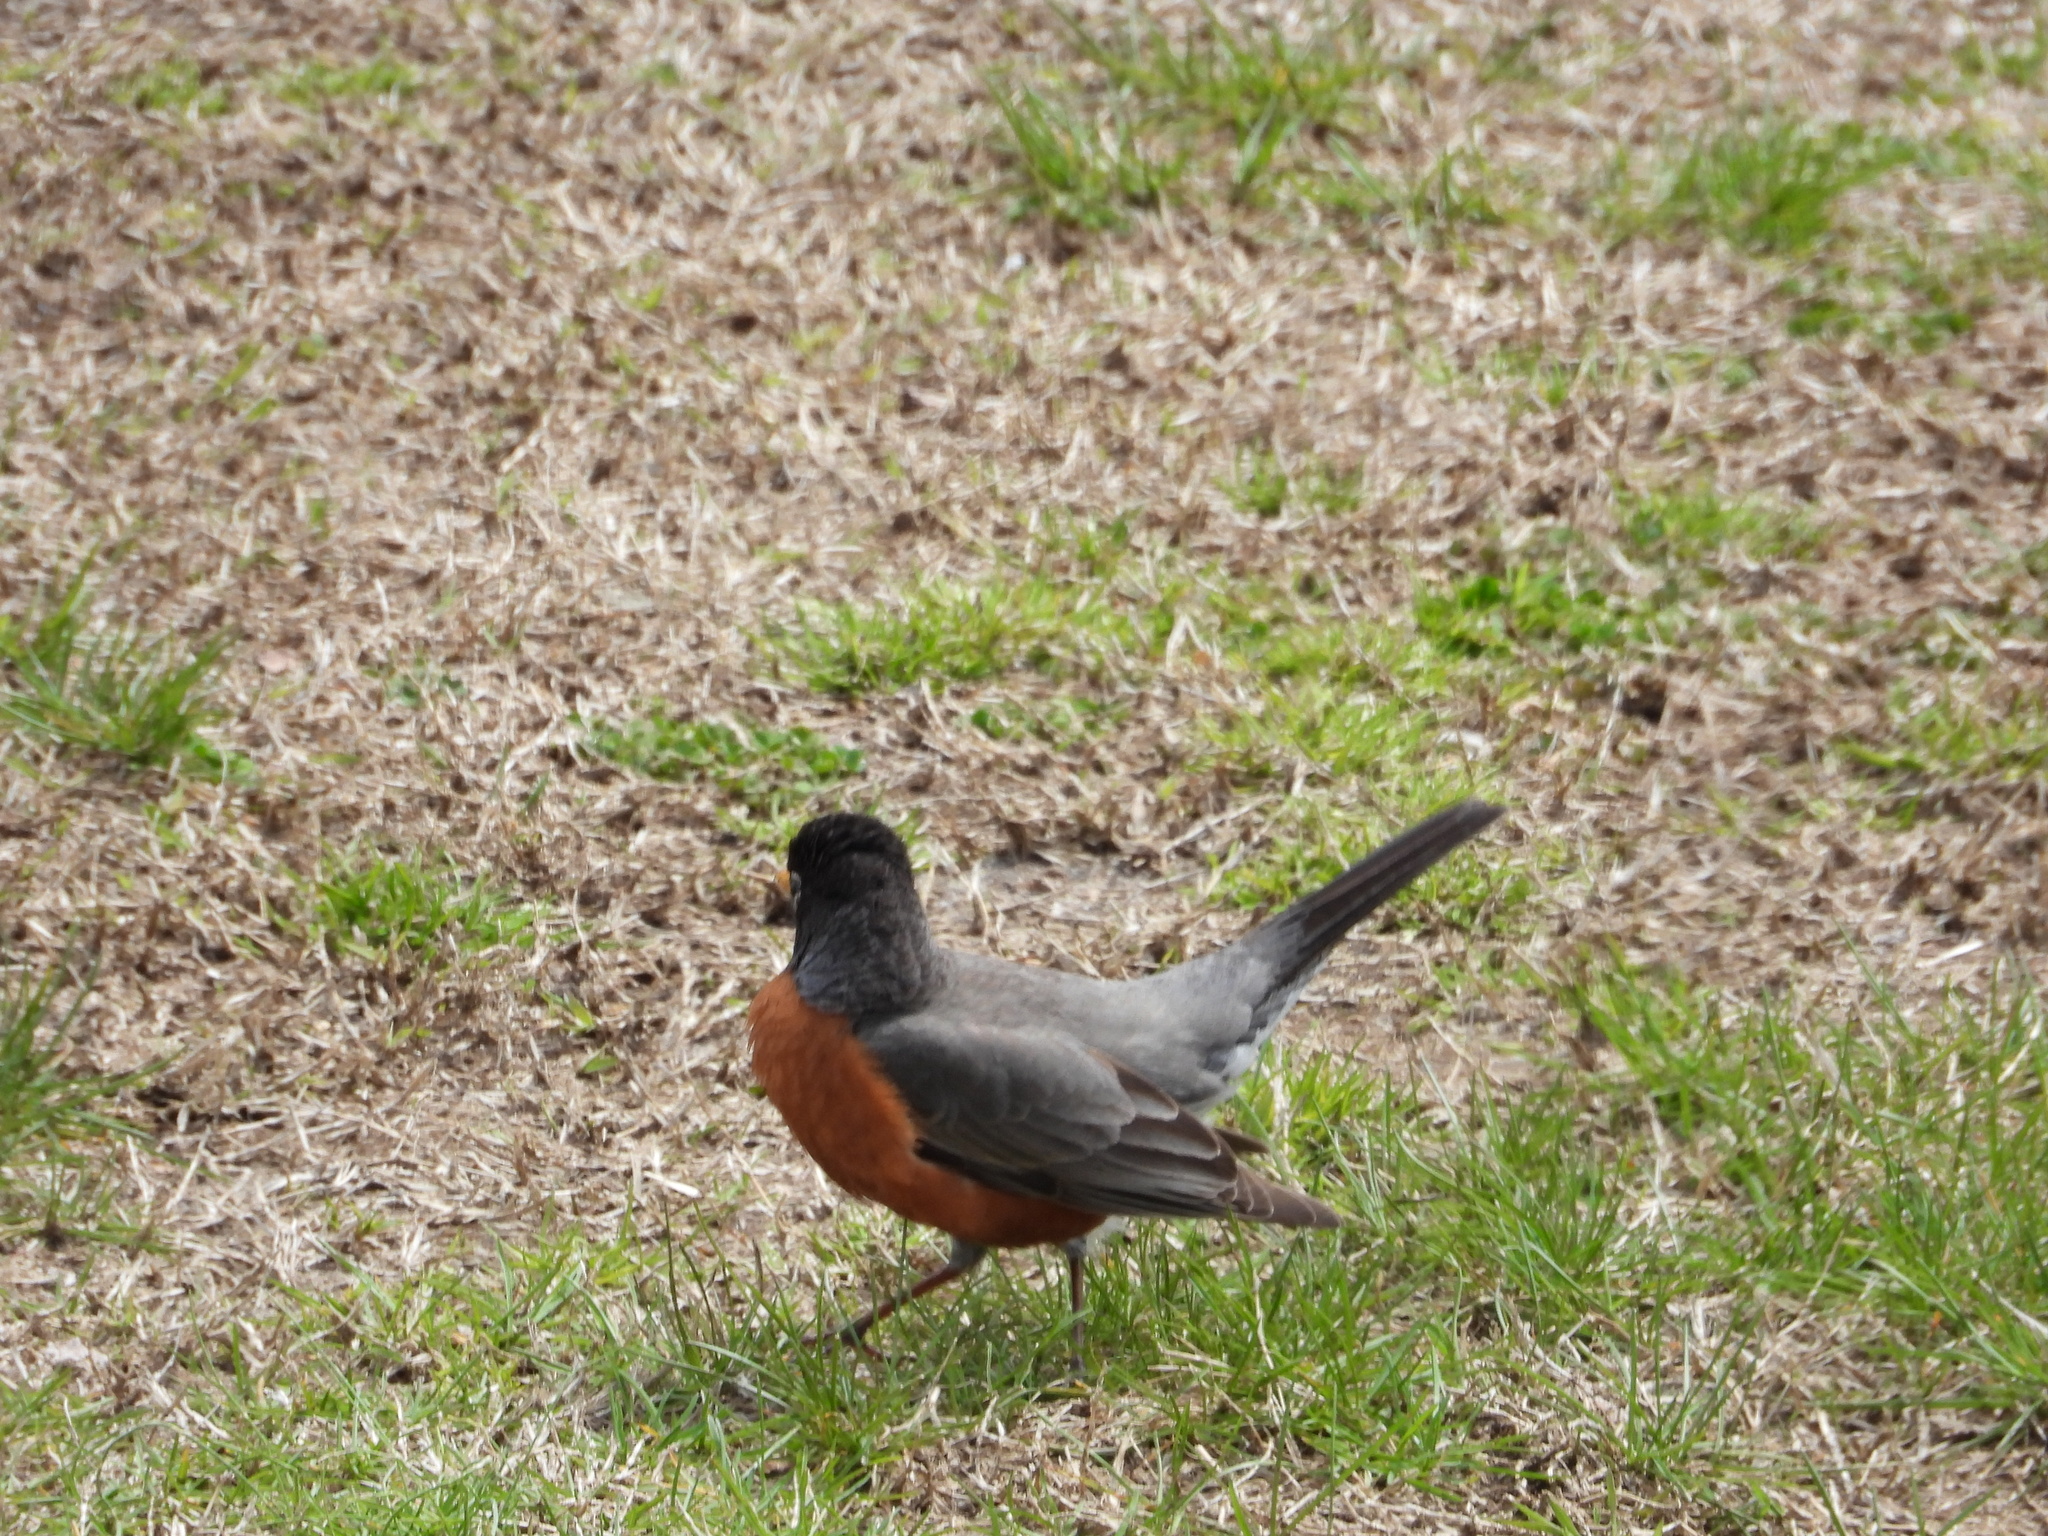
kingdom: Animalia
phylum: Chordata
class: Aves
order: Passeriformes
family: Turdidae
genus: Turdus
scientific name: Turdus migratorius
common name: American robin
